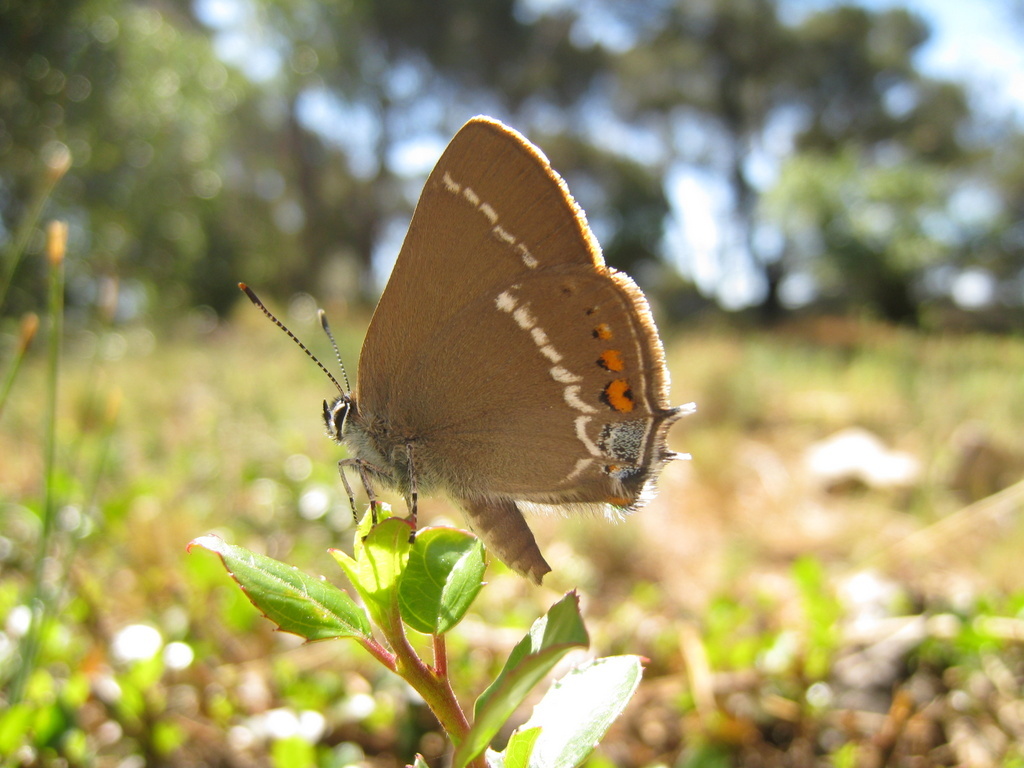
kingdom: Animalia
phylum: Arthropoda
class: Insecta
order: Lepidoptera
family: Lycaenidae
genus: Tuttiola
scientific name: Tuttiola spini
